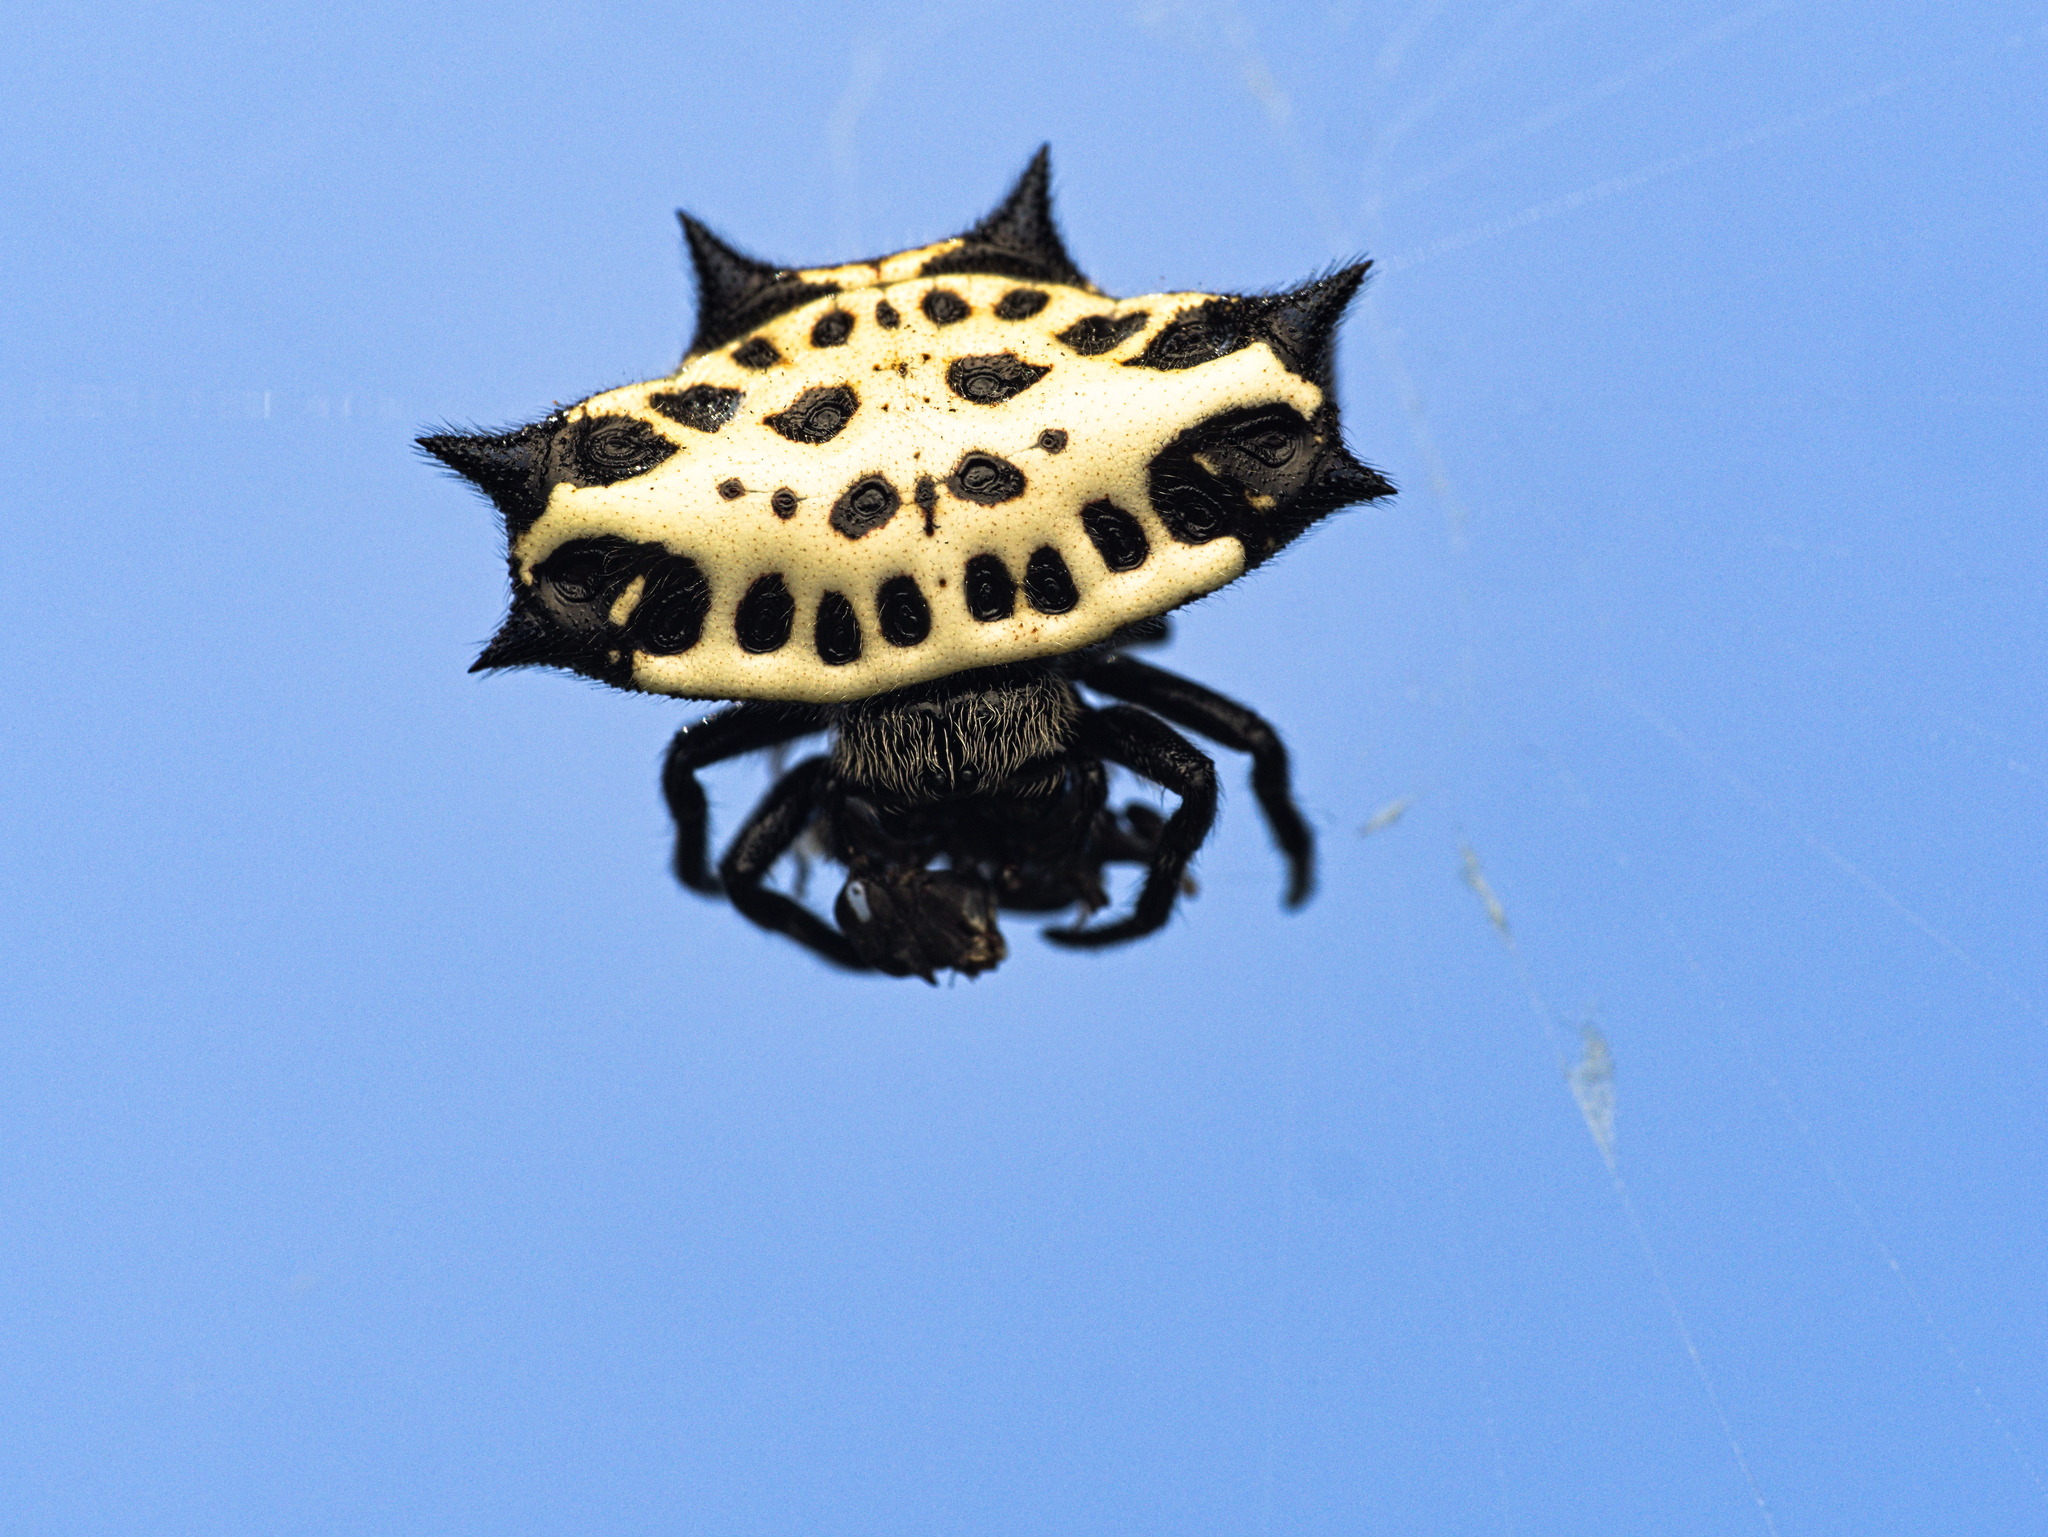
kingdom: Animalia
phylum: Arthropoda
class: Arachnida
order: Araneae
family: Araneidae
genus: Gasteracantha
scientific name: Gasteracantha cancriformis
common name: Orb weavers
